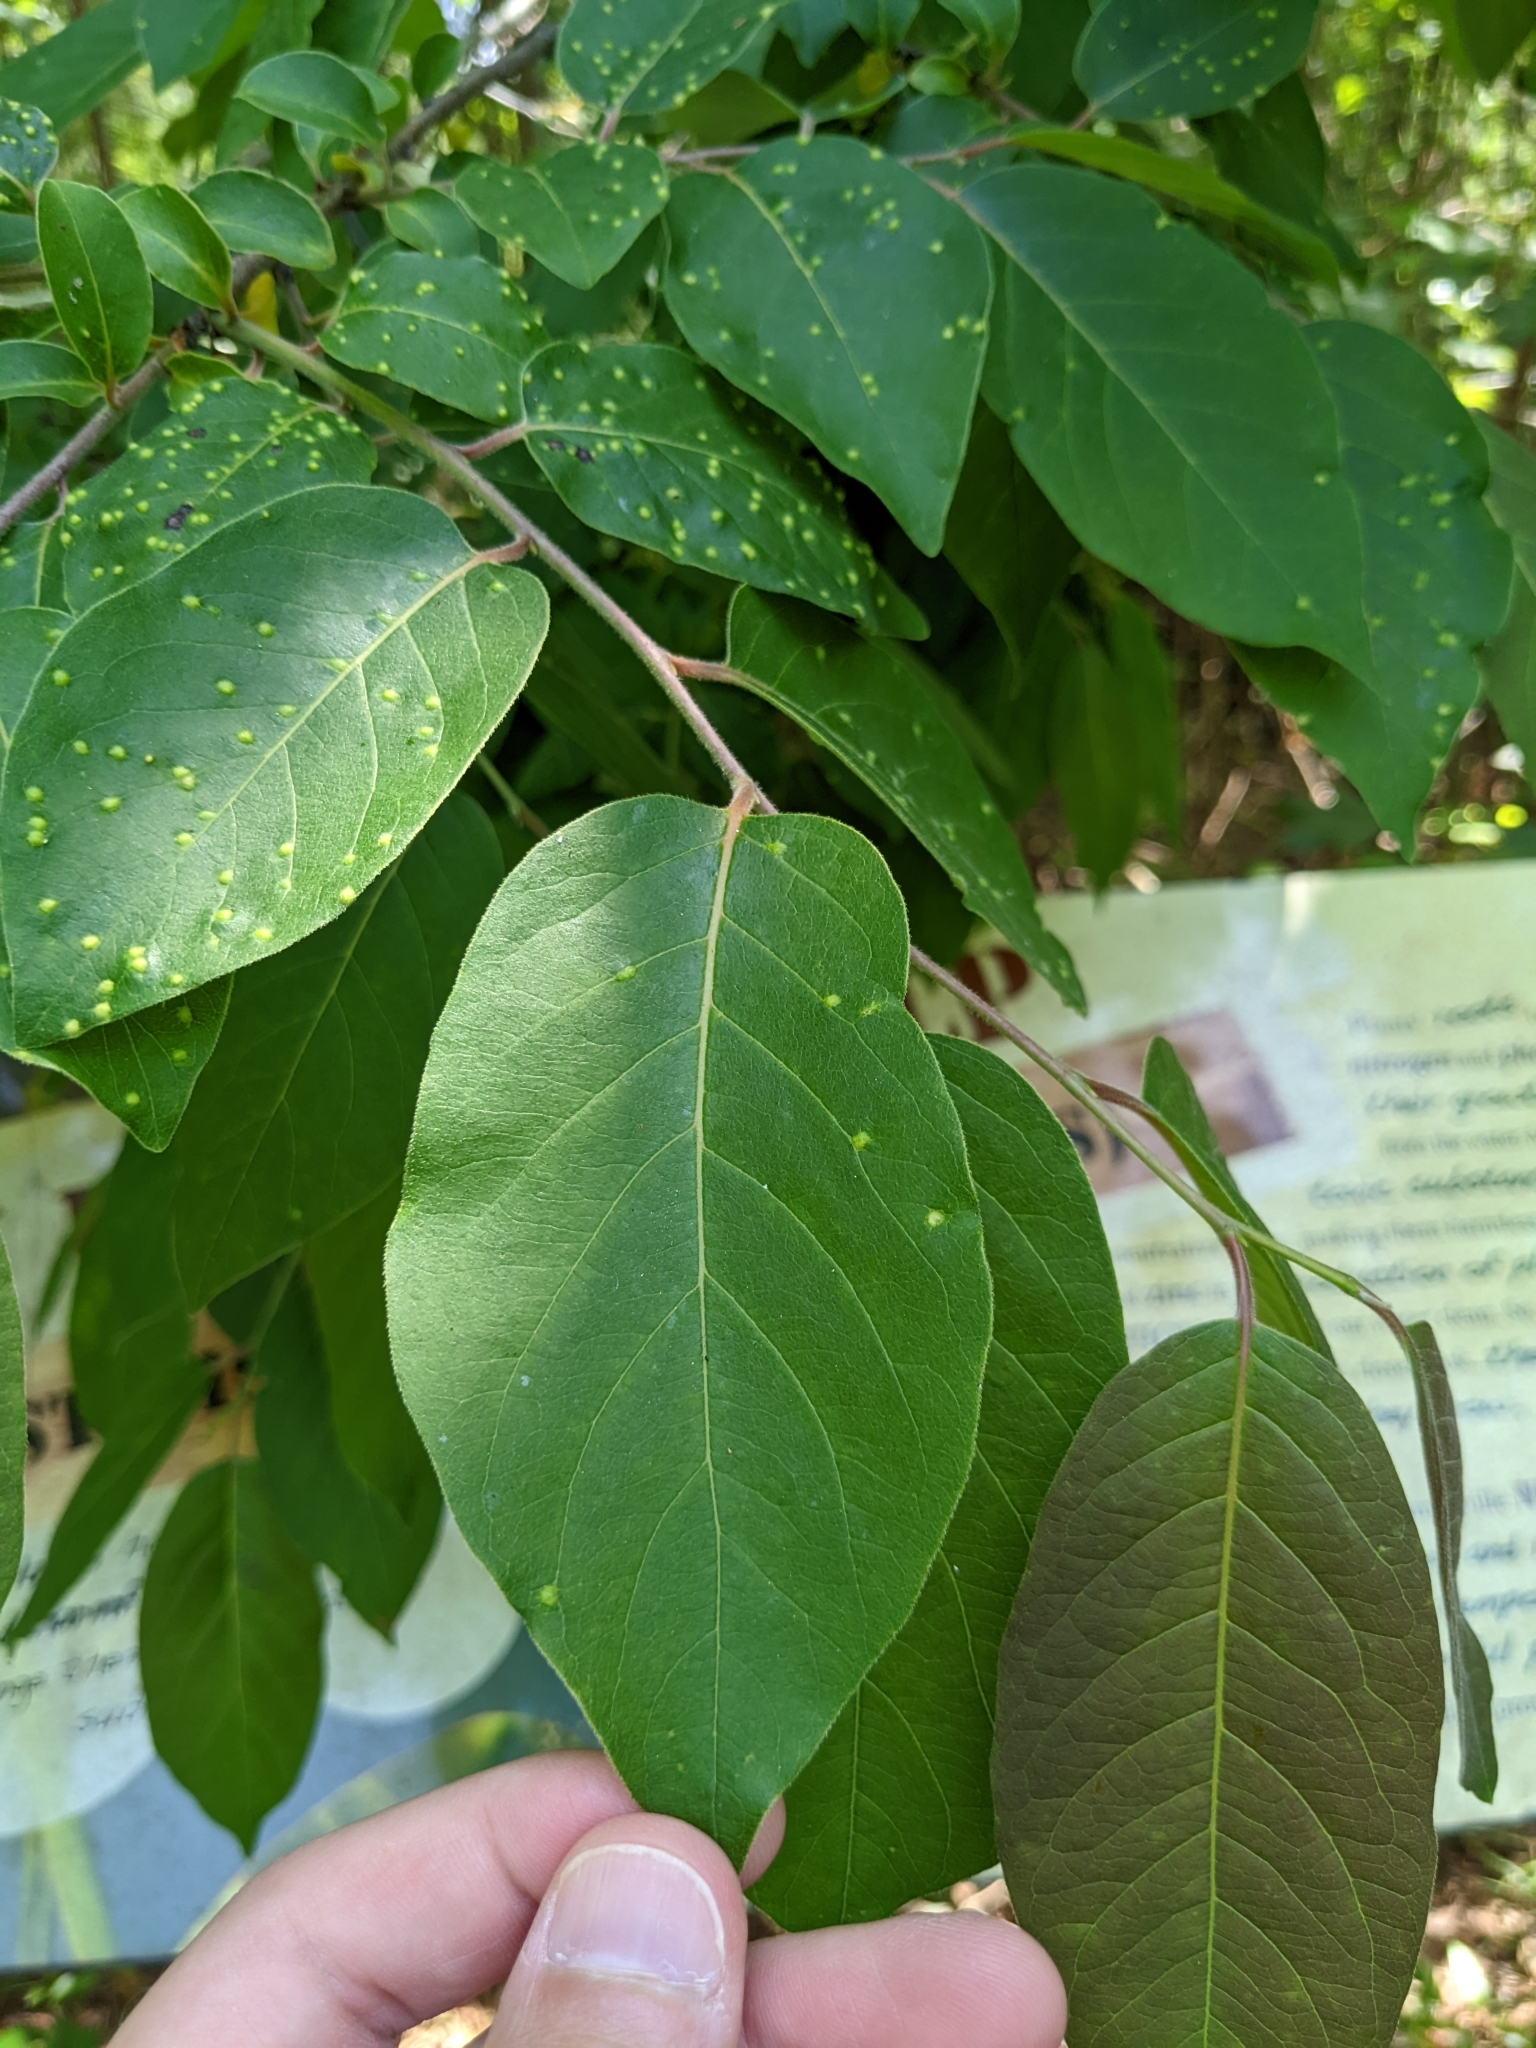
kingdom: Animalia
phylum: Arthropoda
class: Arachnida
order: Trombidiformes
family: Eriophyidae
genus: Aceria
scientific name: Aceria
